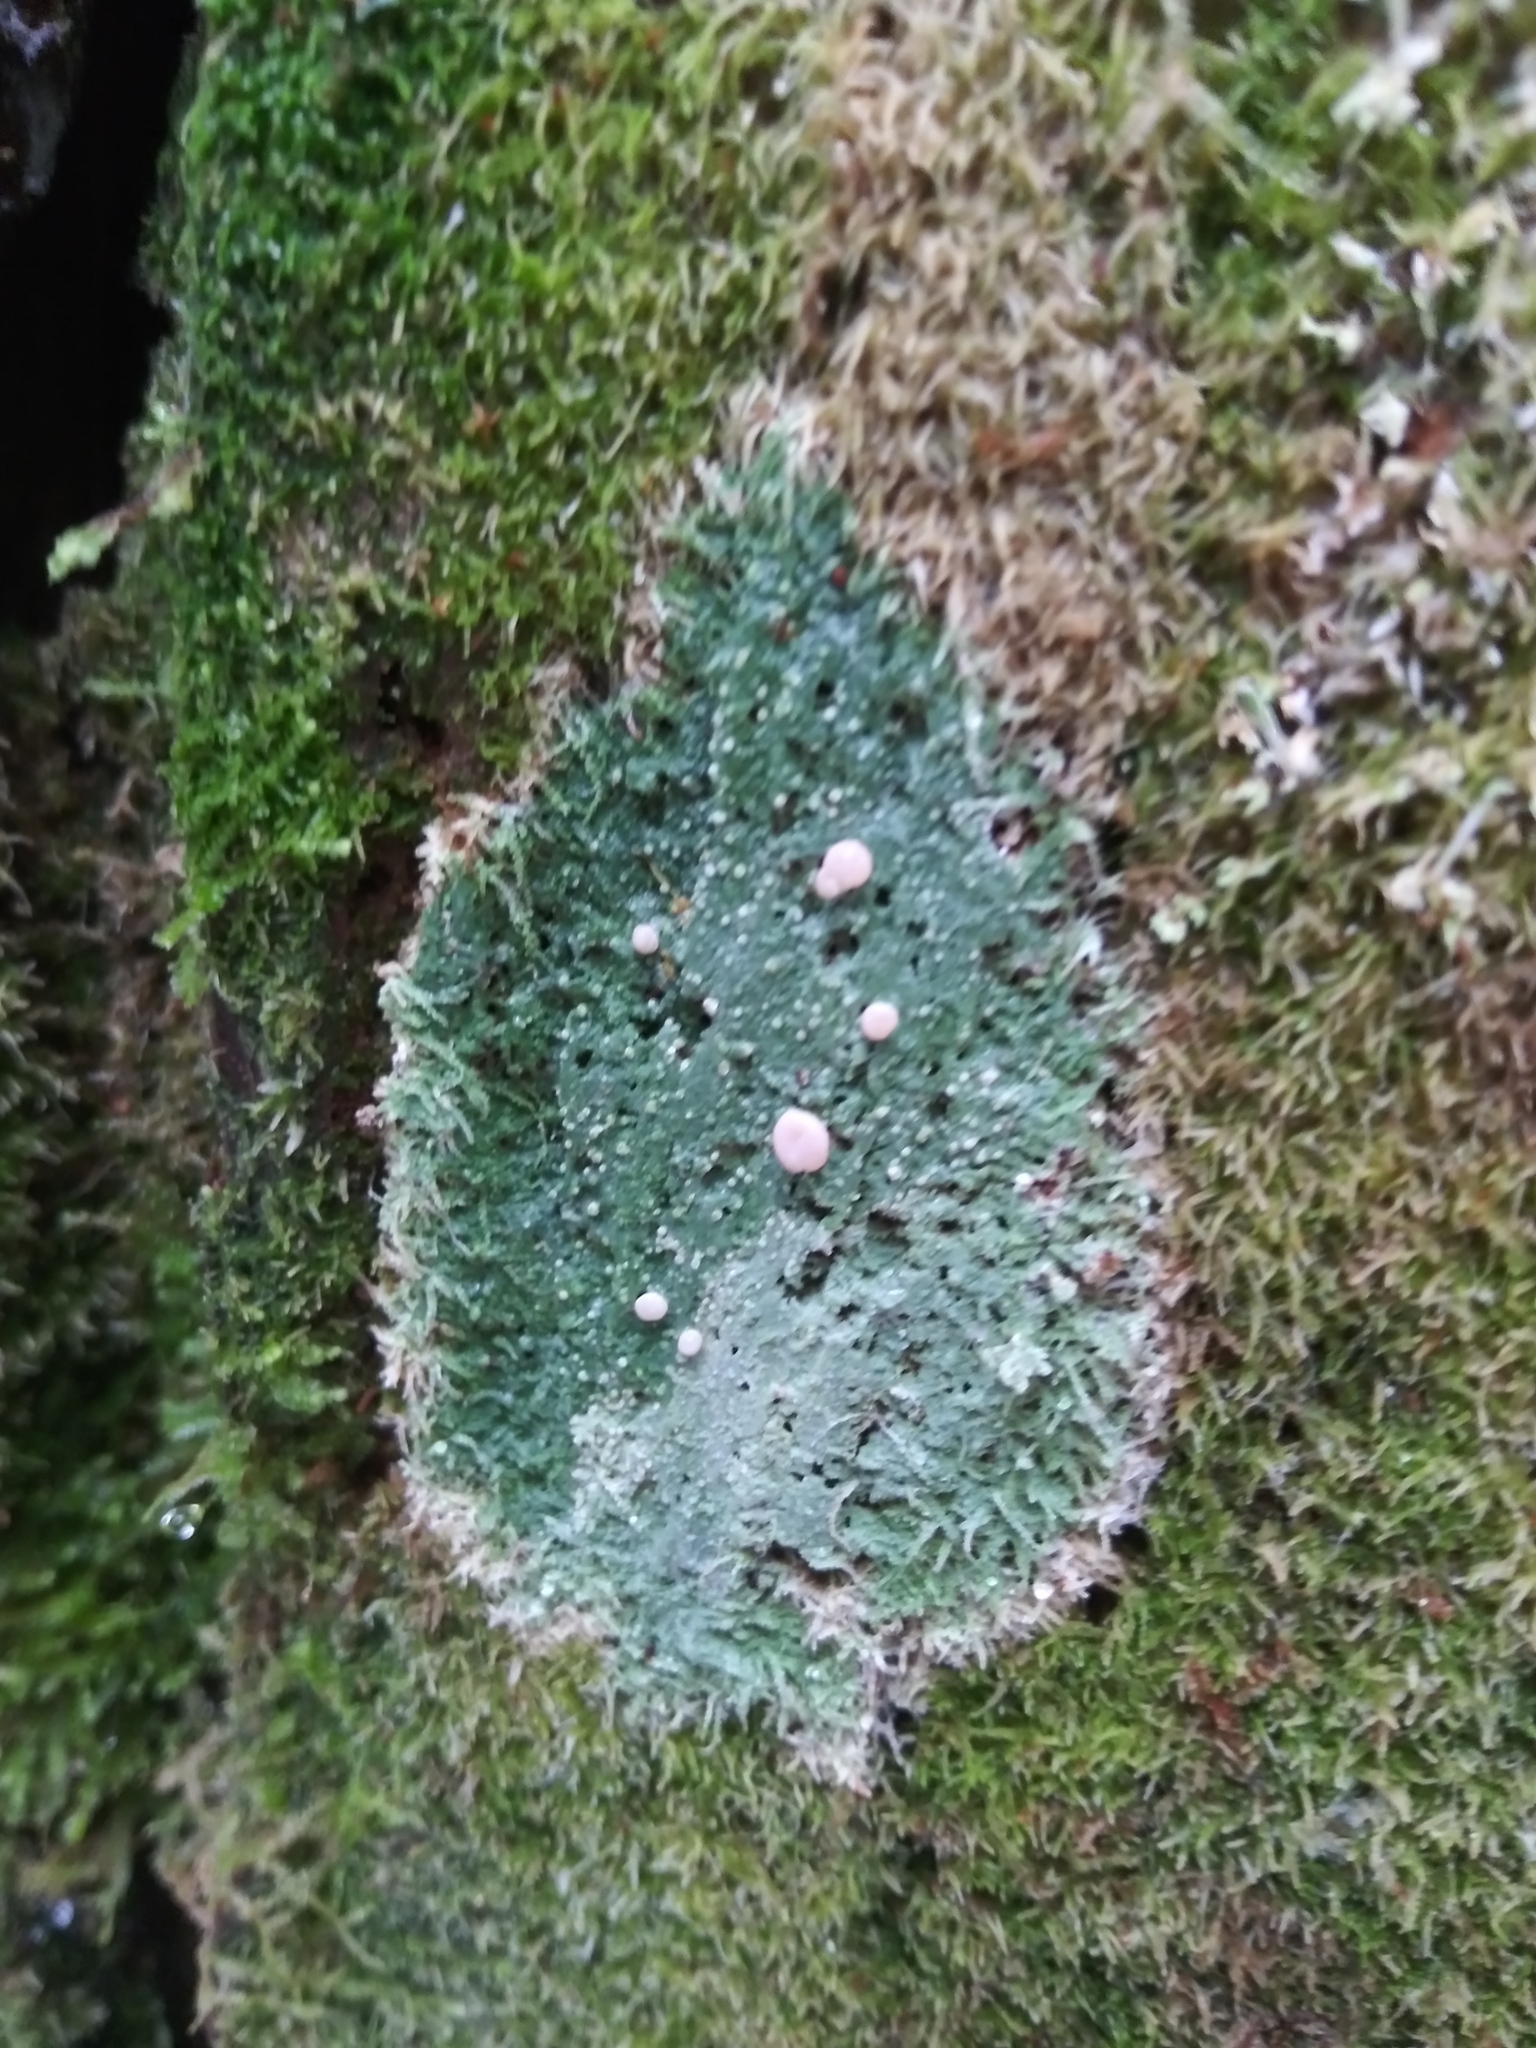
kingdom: Fungi
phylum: Ascomycota
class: Lecanoromycetes
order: Pertusariales
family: Icmadophilaceae
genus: Icmadophila
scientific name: Icmadophila ericetorum
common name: Candy lichen
